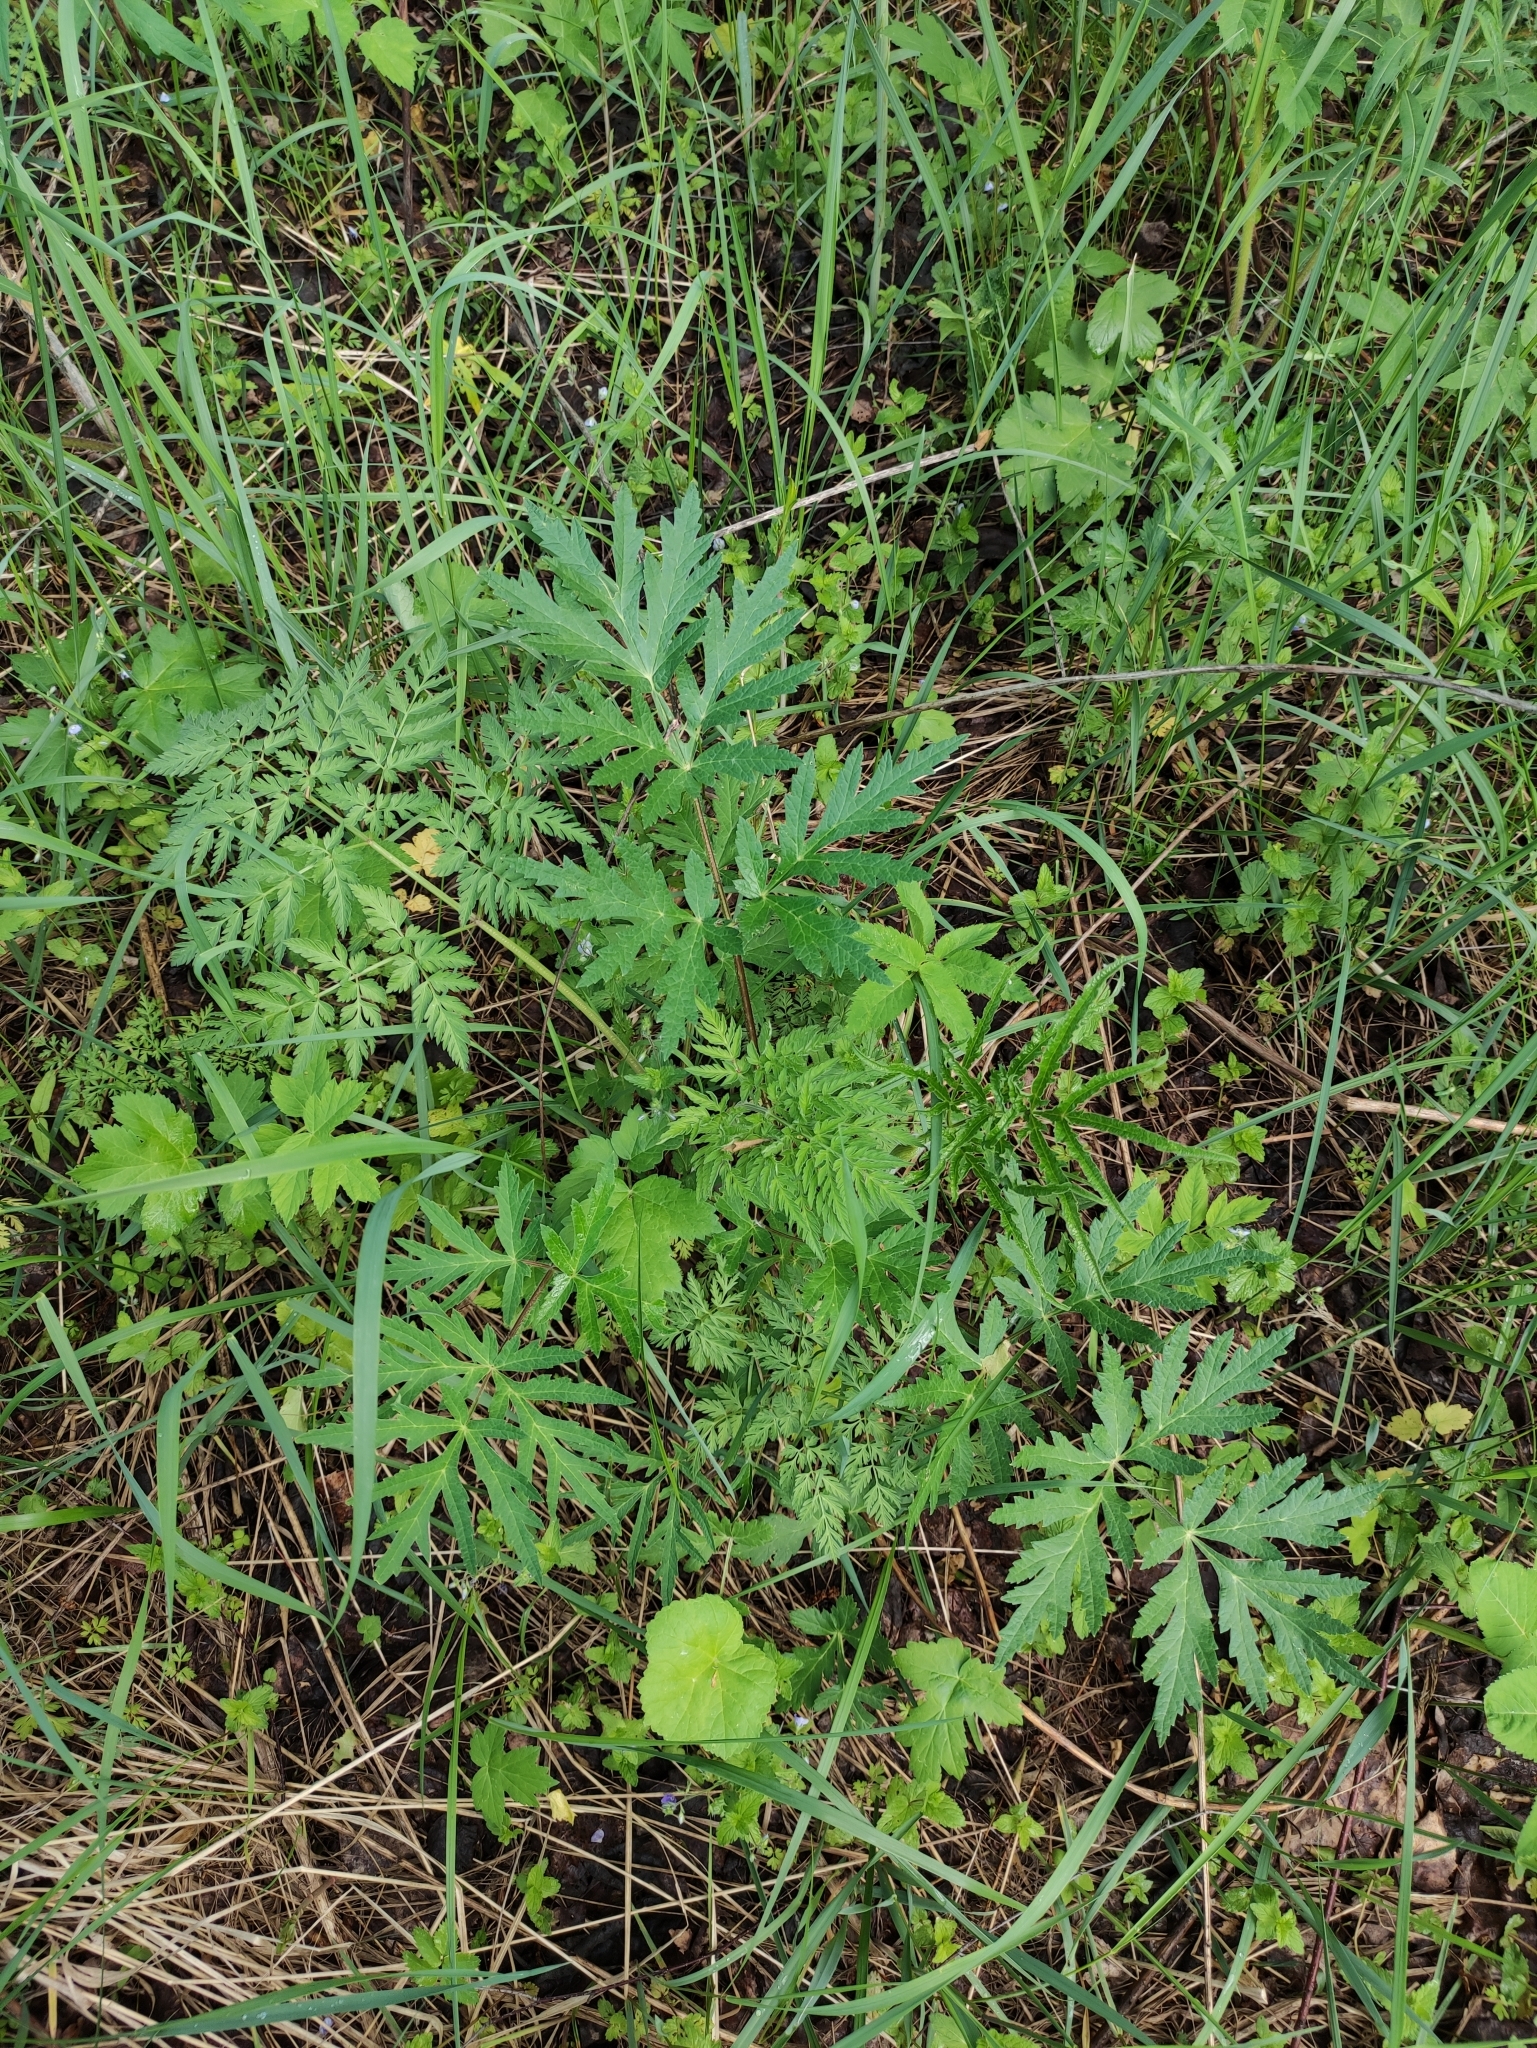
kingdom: Plantae
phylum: Tracheophyta
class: Magnoliopsida
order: Apiales
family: Apiaceae
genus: Heracleum
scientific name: Heracleum sphondylium
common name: Hogweed
